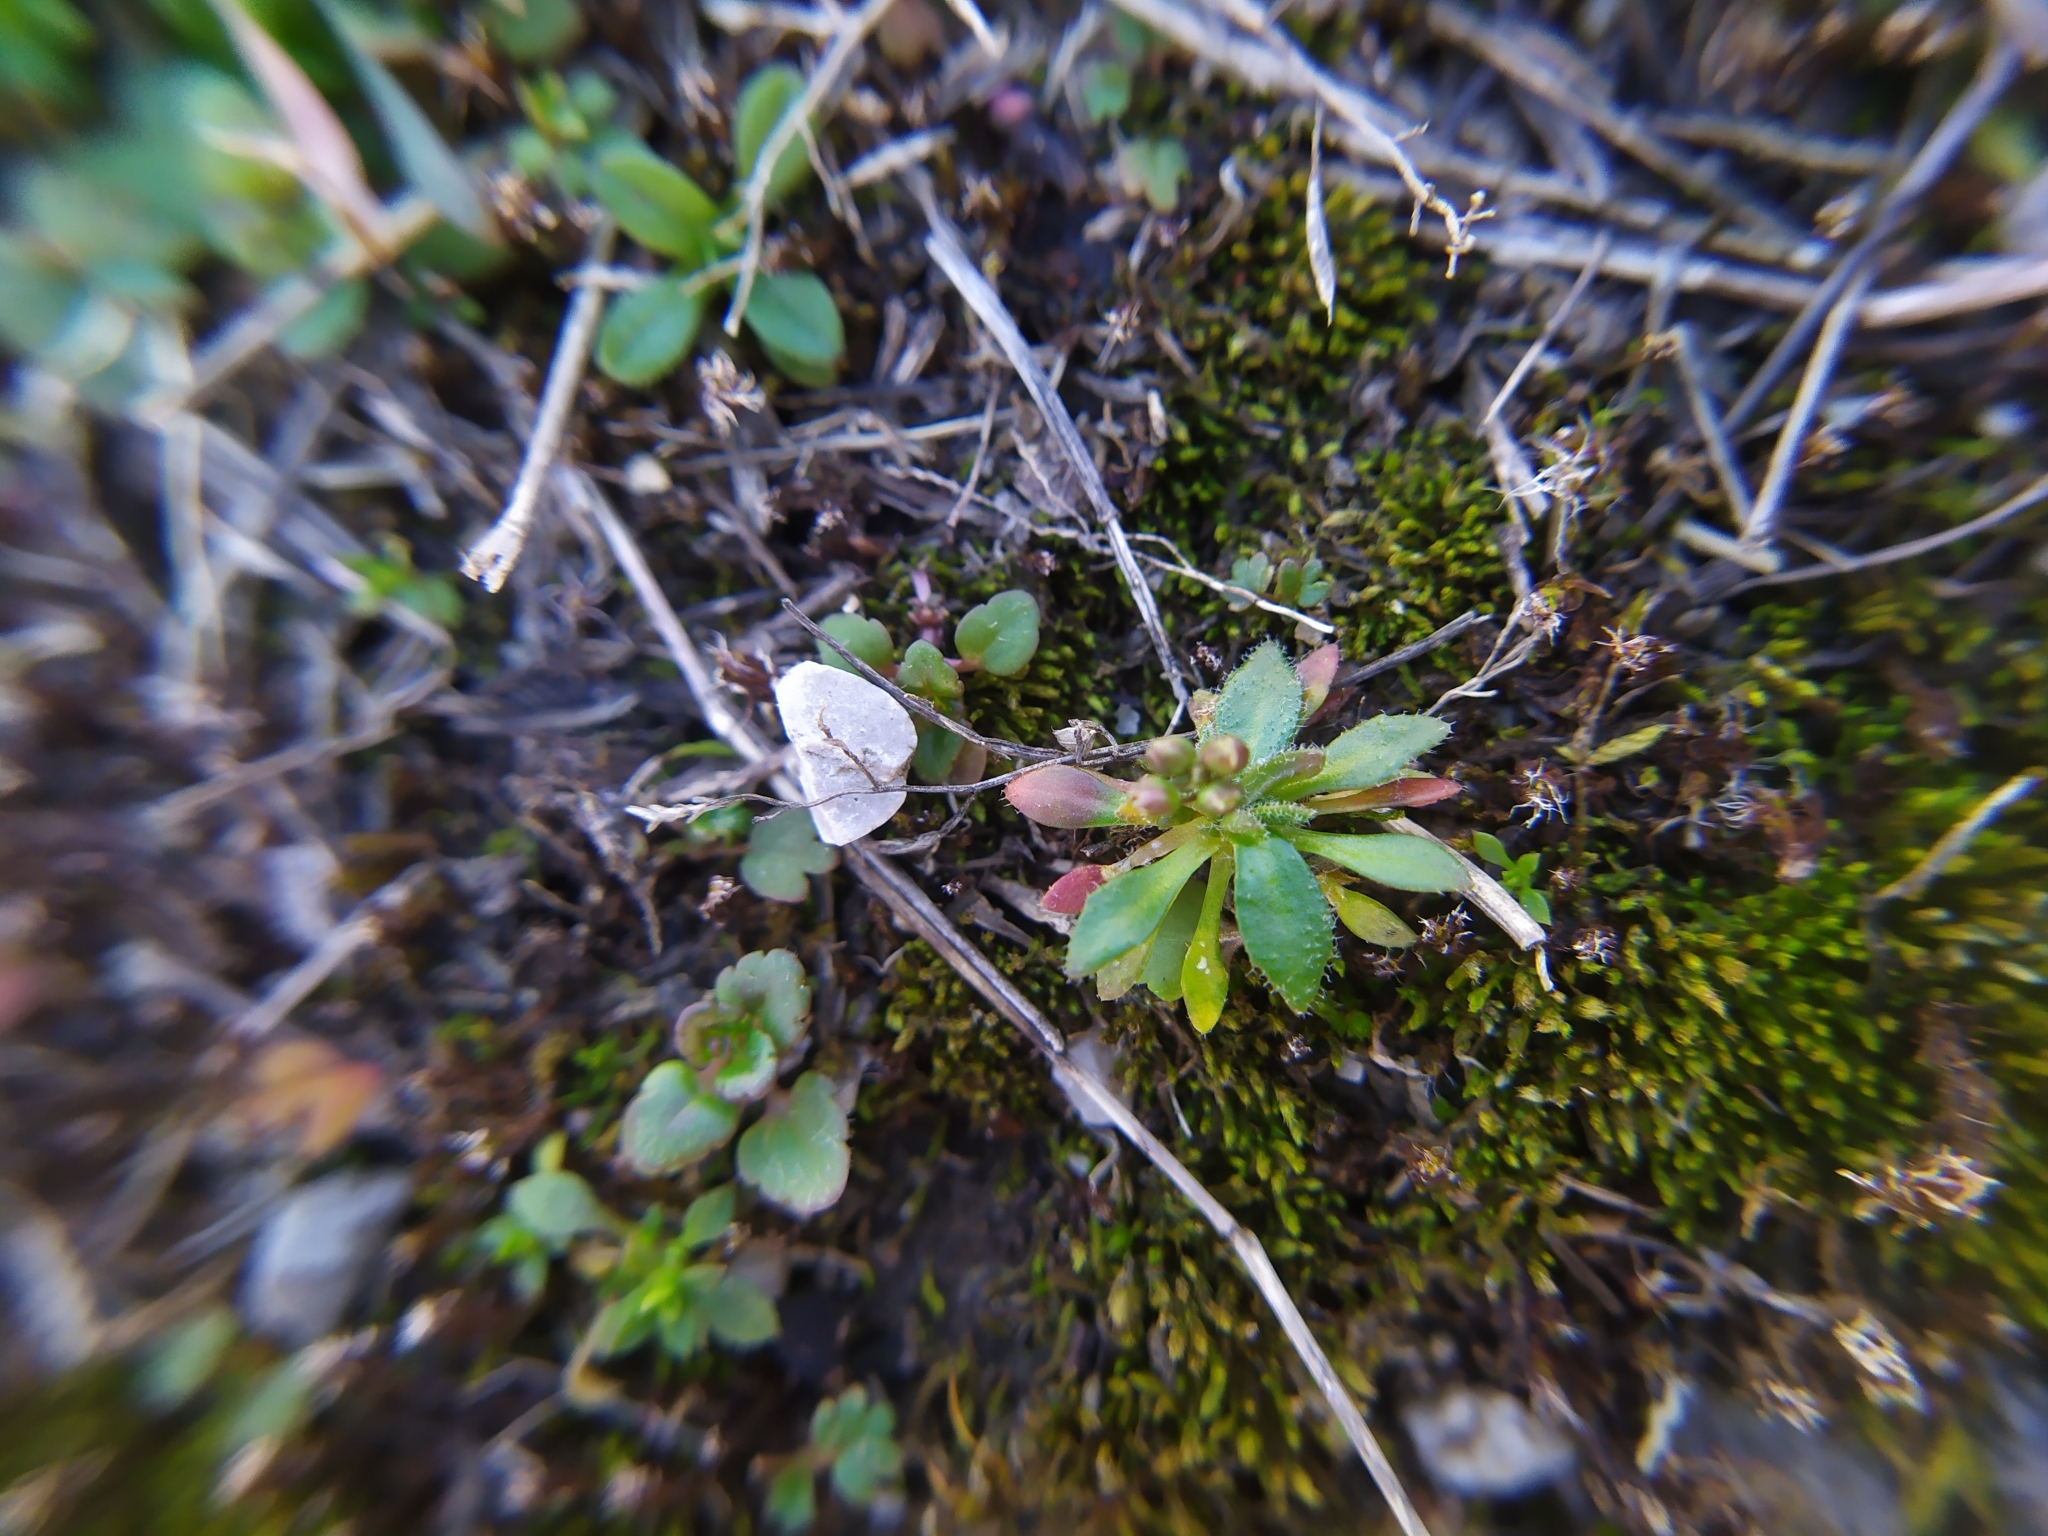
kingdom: Plantae
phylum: Tracheophyta
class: Magnoliopsida
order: Brassicales
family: Brassicaceae
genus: Draba
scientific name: Draba verna
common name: Spring draba
